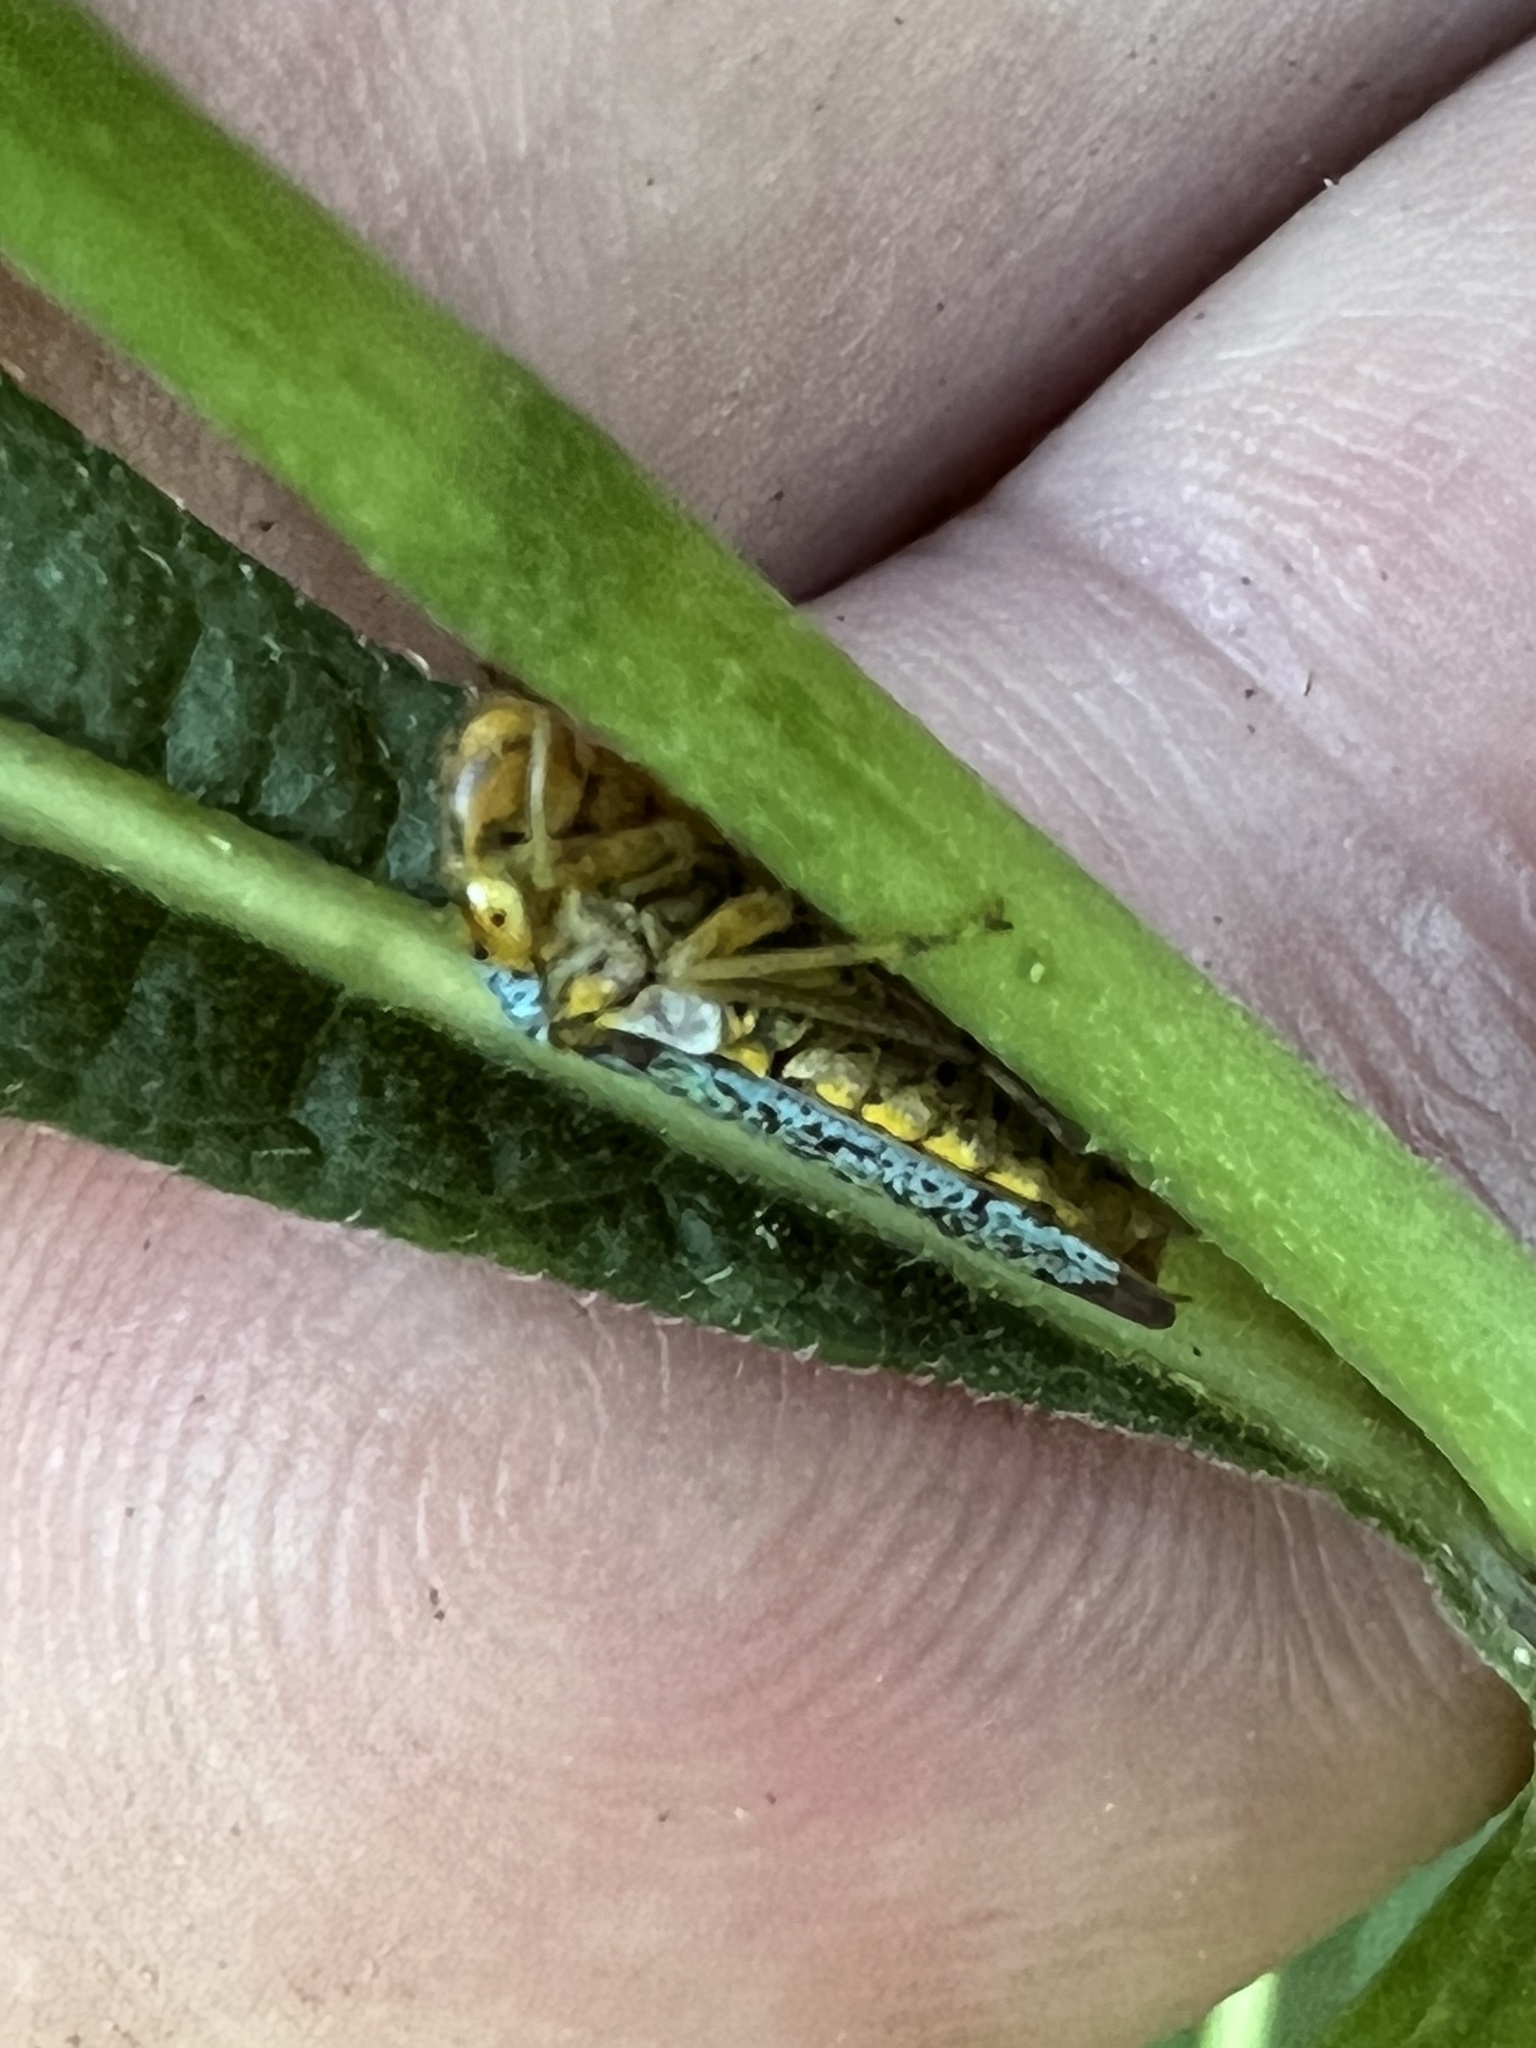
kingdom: Animalia
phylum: Arthropoda
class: Insecta
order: Hemiptera
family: Cicadellidae
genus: Oncometopia
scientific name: Oncometopia orbona
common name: Broad-headed sharpshooter
